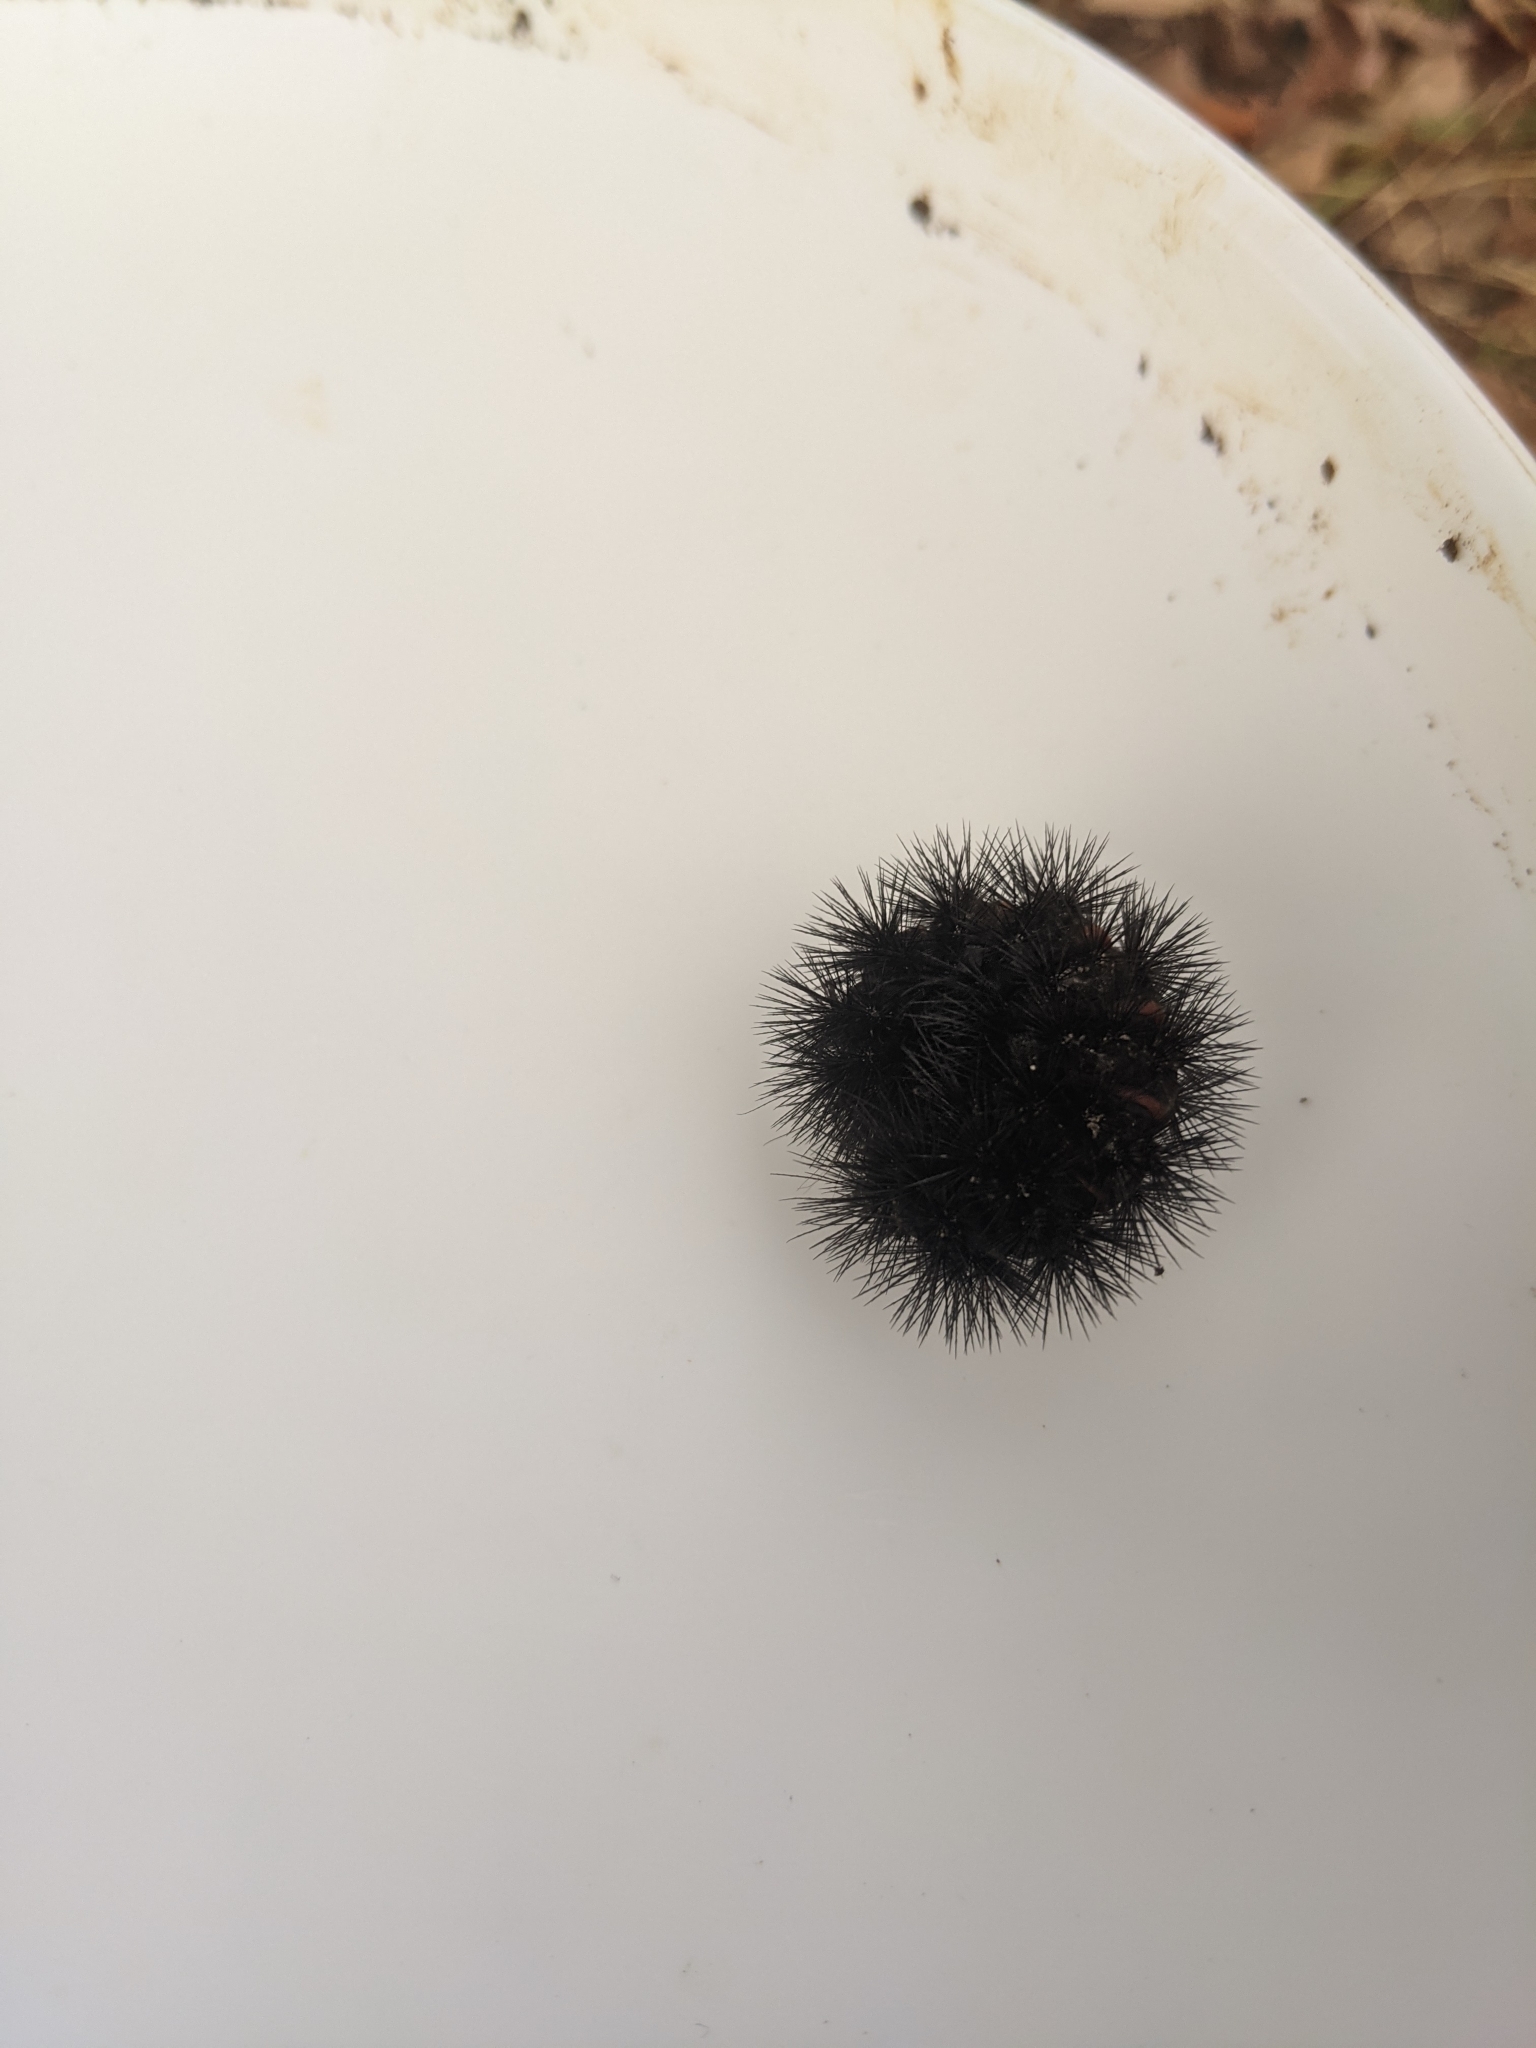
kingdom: Animalia
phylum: Arthropoda
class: Insecta
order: Lepidoptera
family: Erebidae
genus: Hypercompe
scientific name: Hypercompe scribonia
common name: Giant leopard moth
